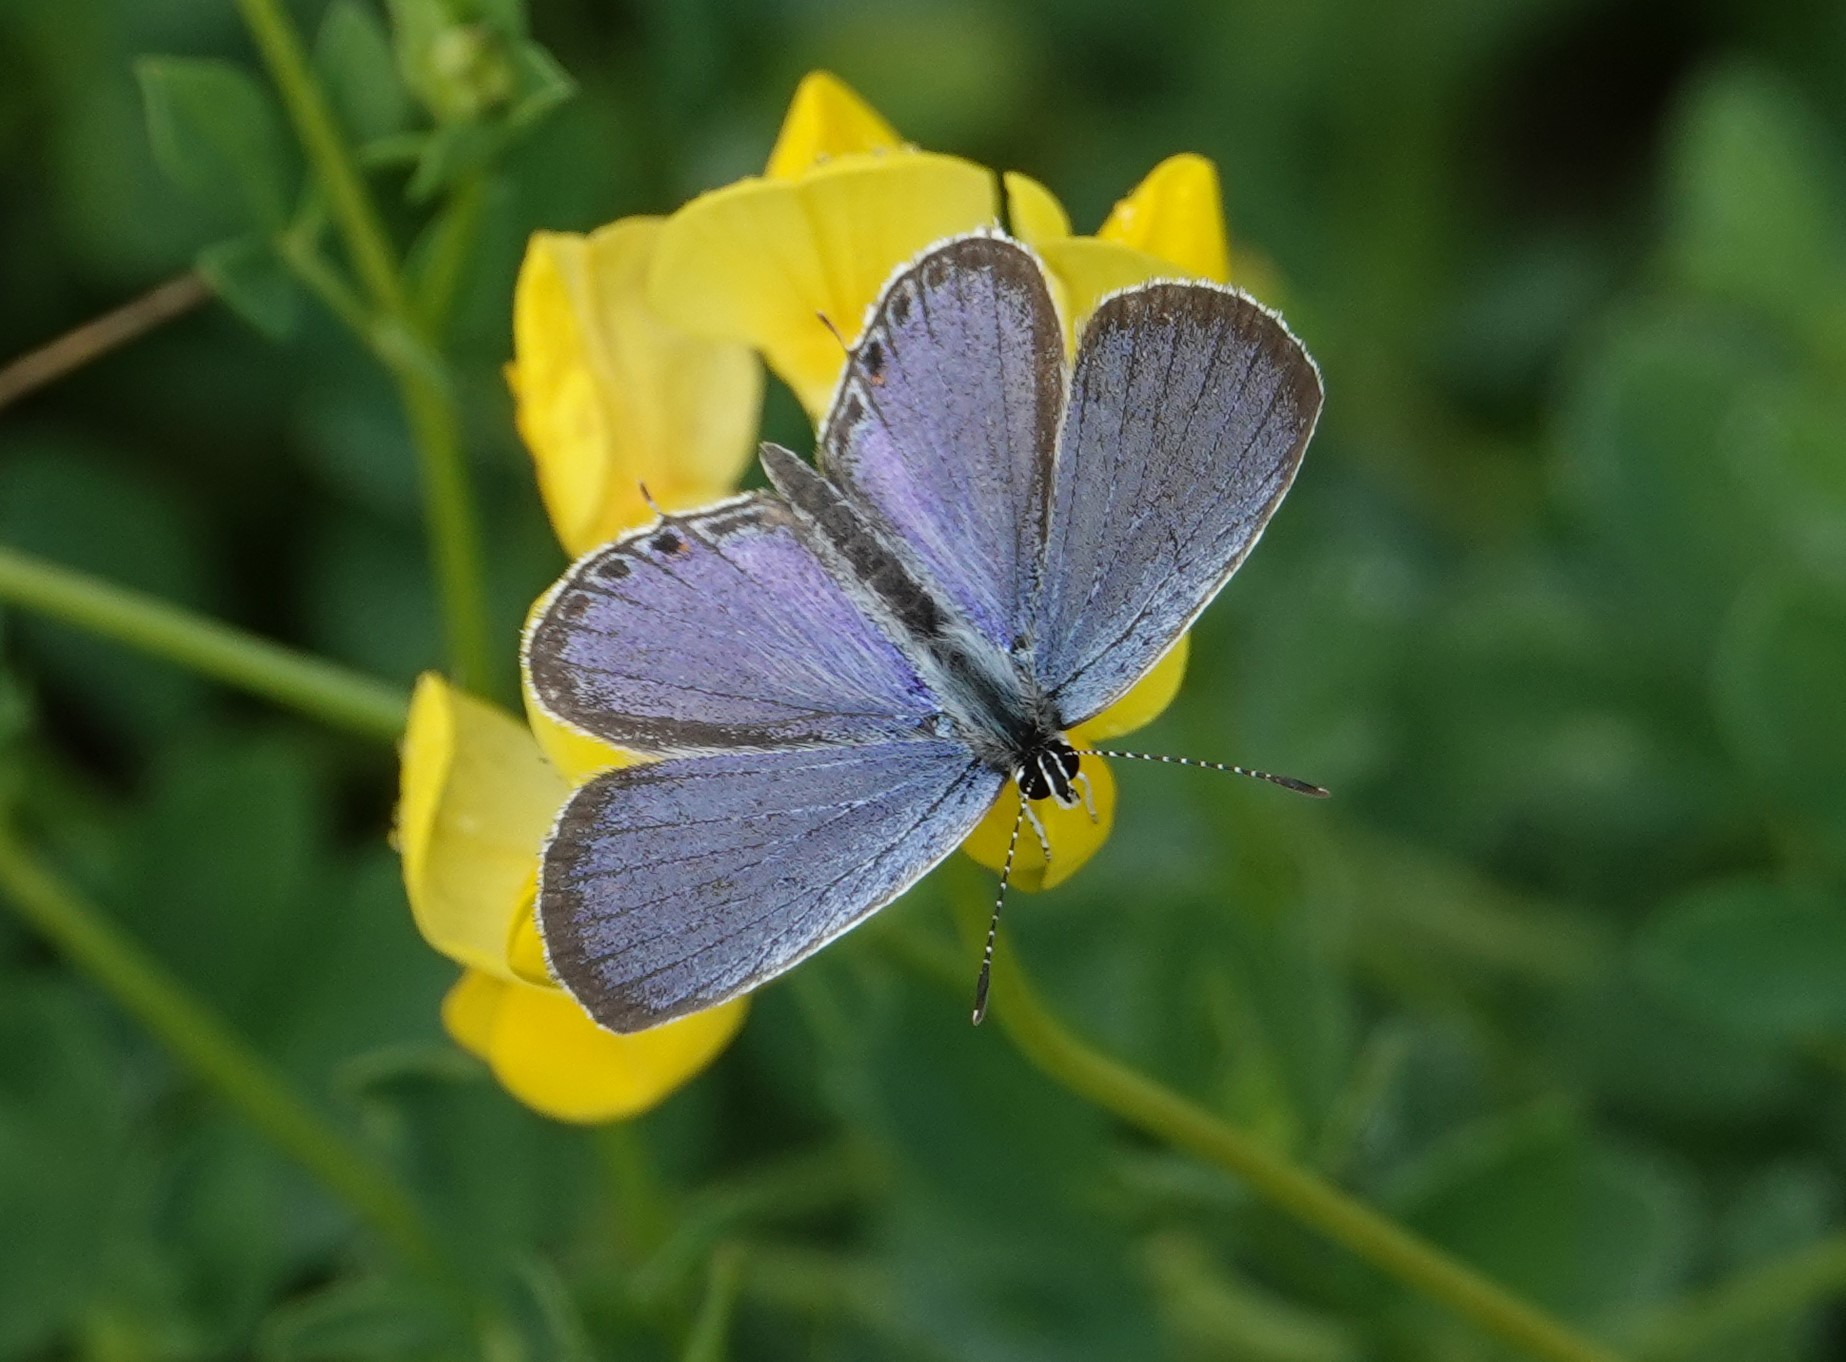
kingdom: Animalia
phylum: Arthropoda
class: Insecta
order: Lepidoptera
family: Lycaenidae
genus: Elkalyce
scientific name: Elkalyce comyntas
